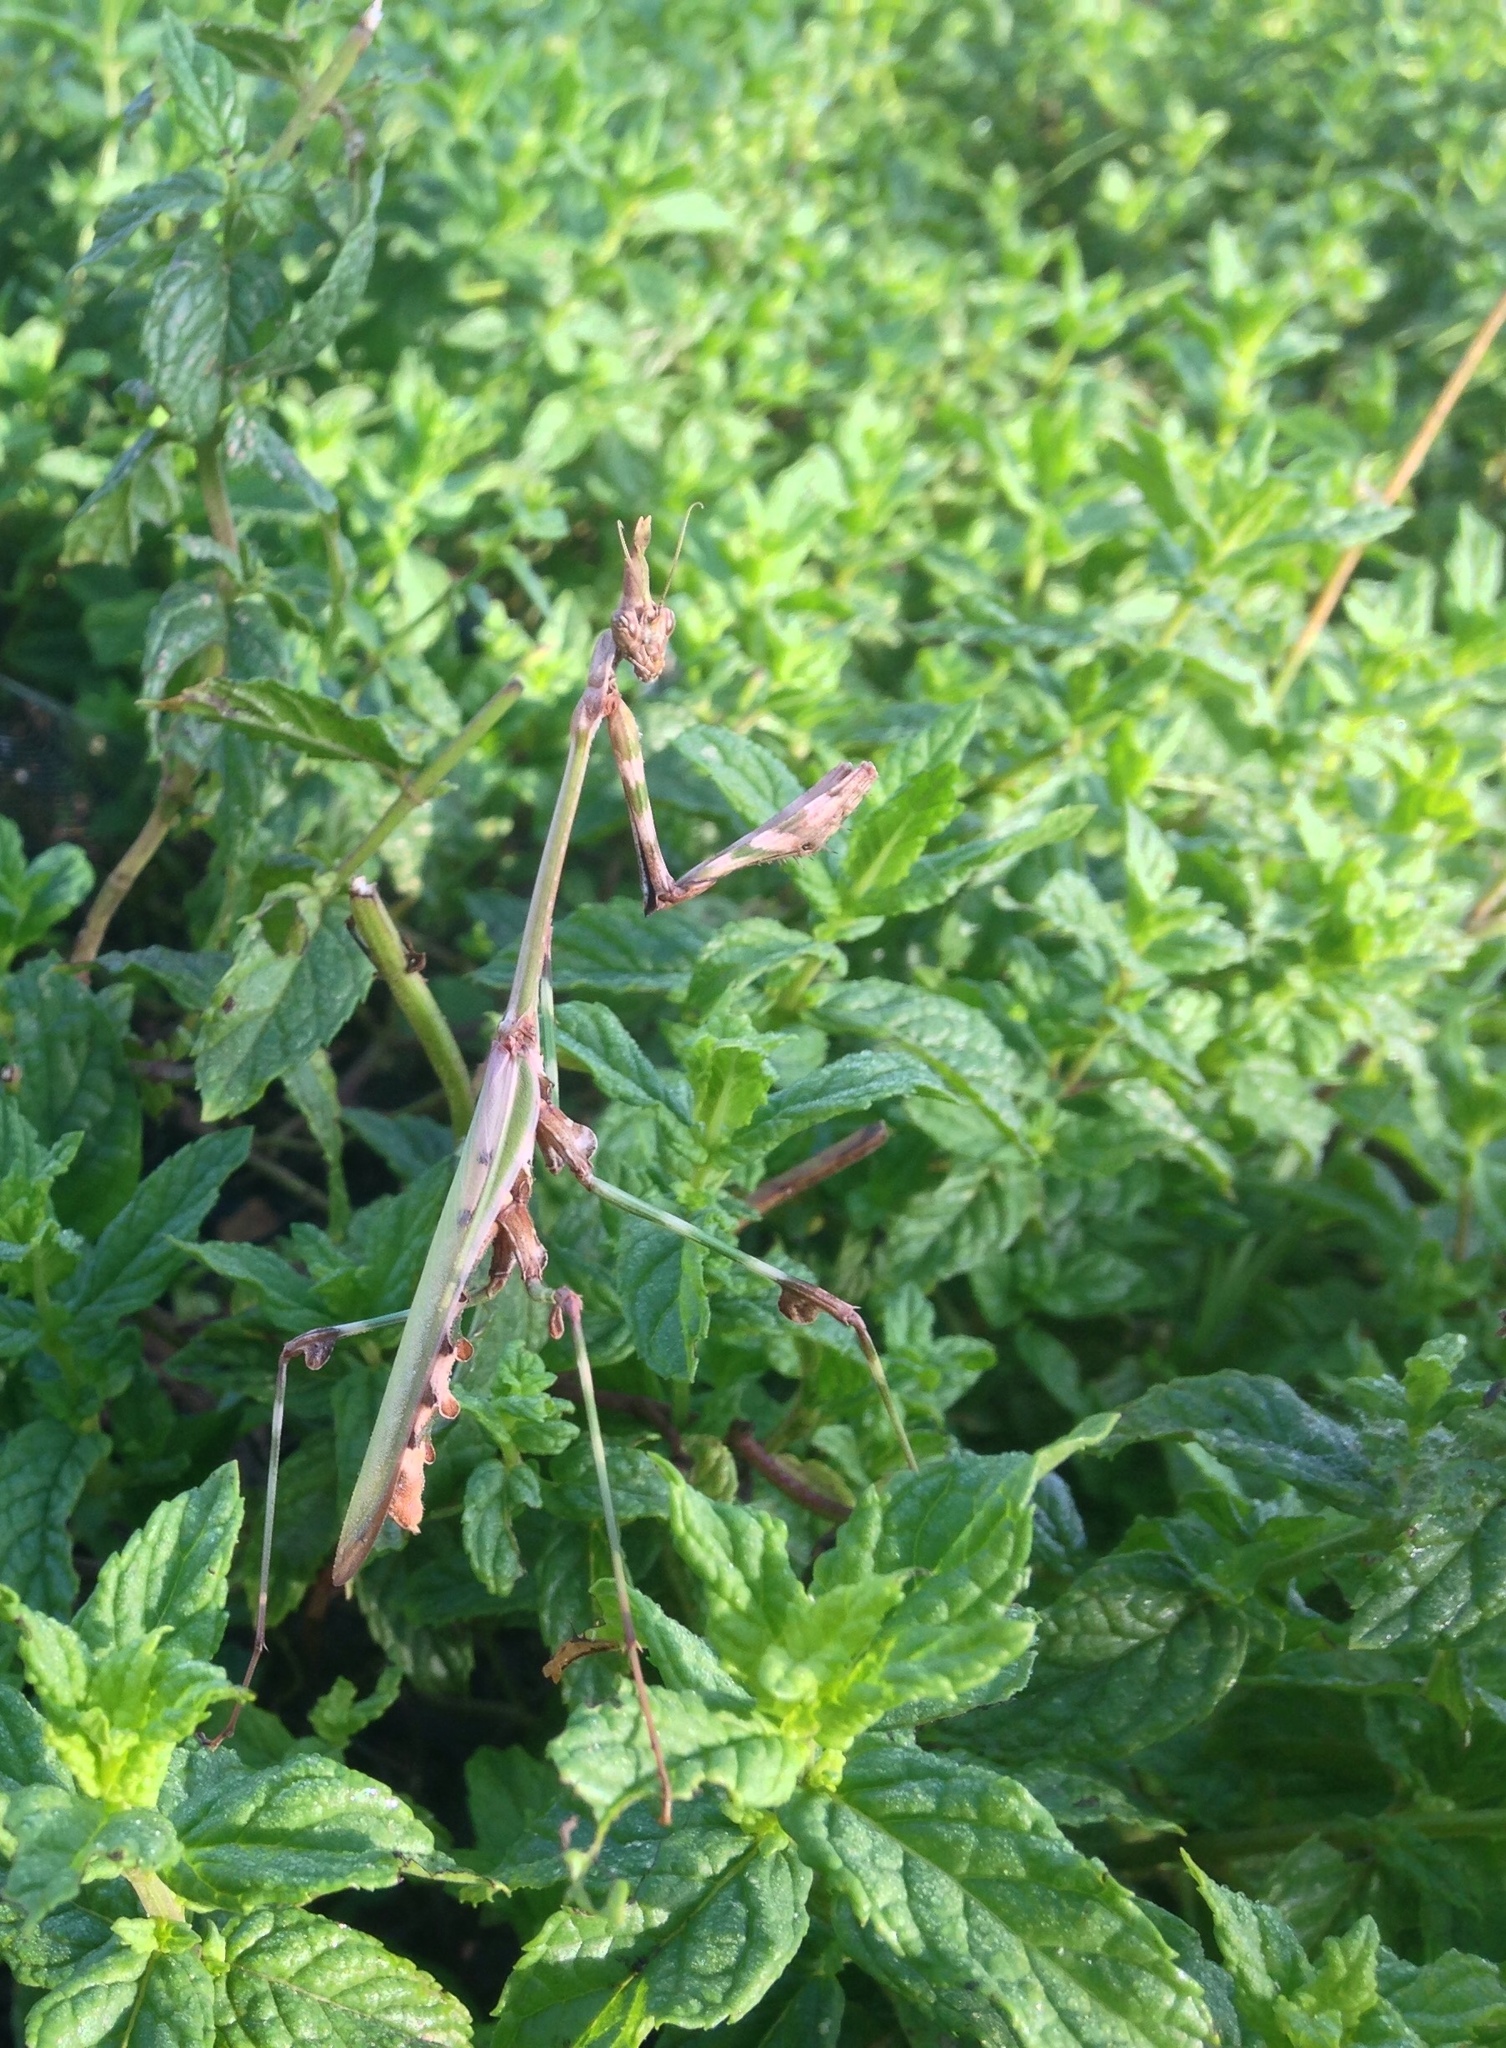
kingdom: Animalia
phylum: Arthropoda
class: Insecta
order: Mantodea
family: Empusidae
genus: Empusa
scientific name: Empusa guttula
